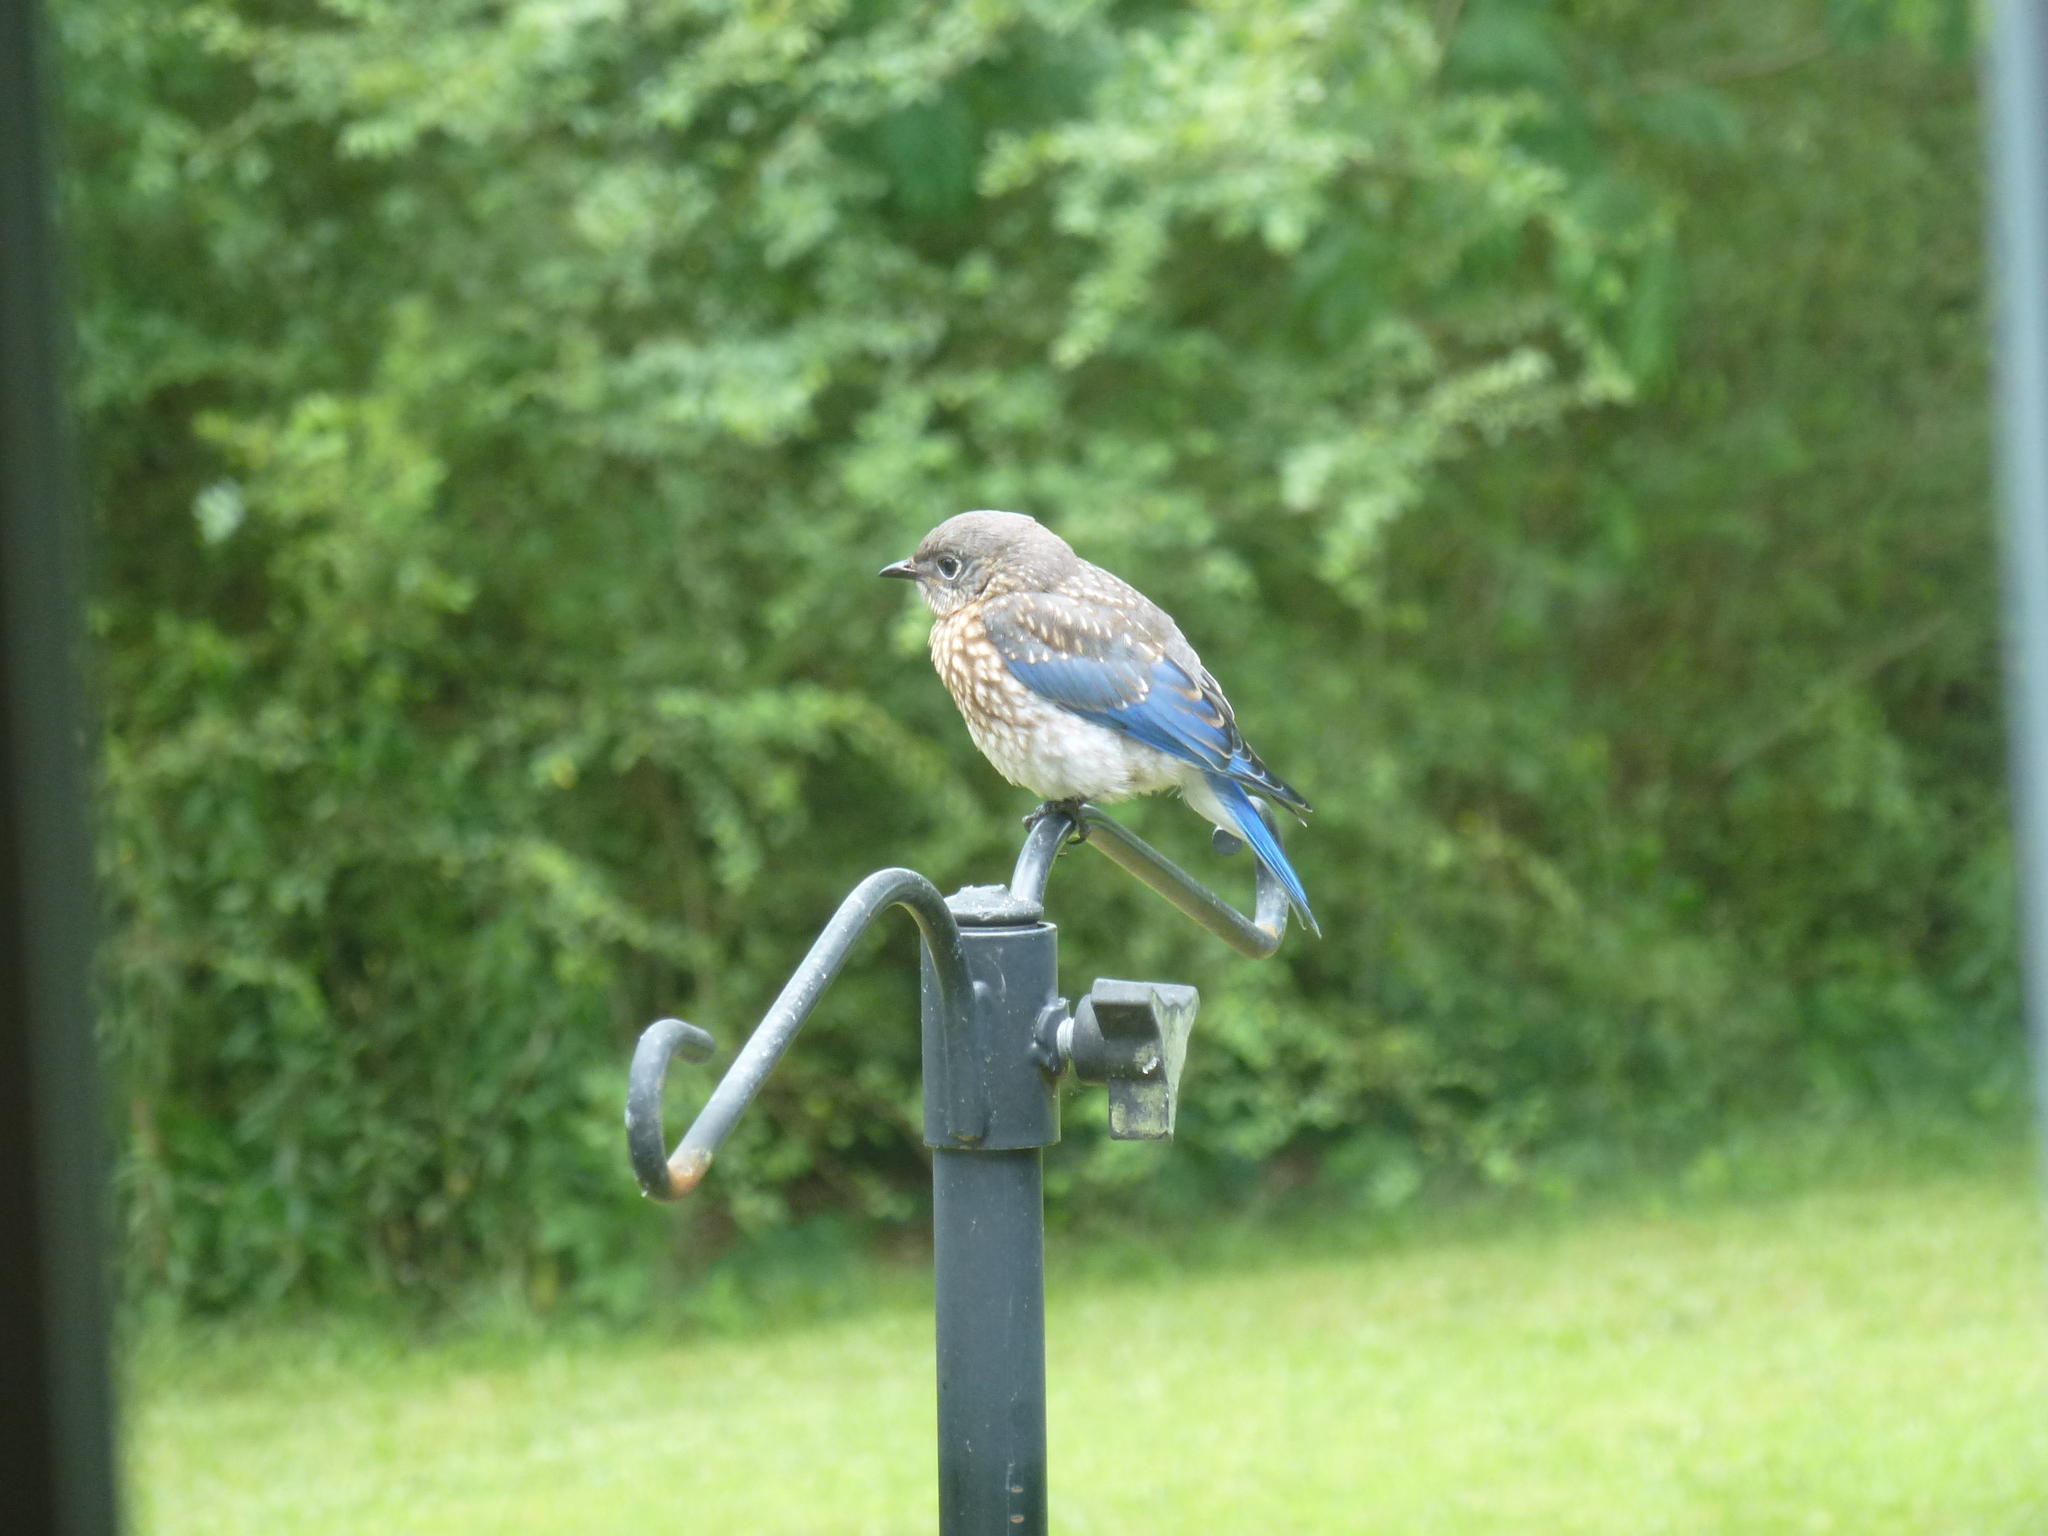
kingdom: Animalia
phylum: Chordata
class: Aves
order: Passeriformes
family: Turdidae
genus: Sialia
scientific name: Sialia sialis
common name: Eastern bluebird
